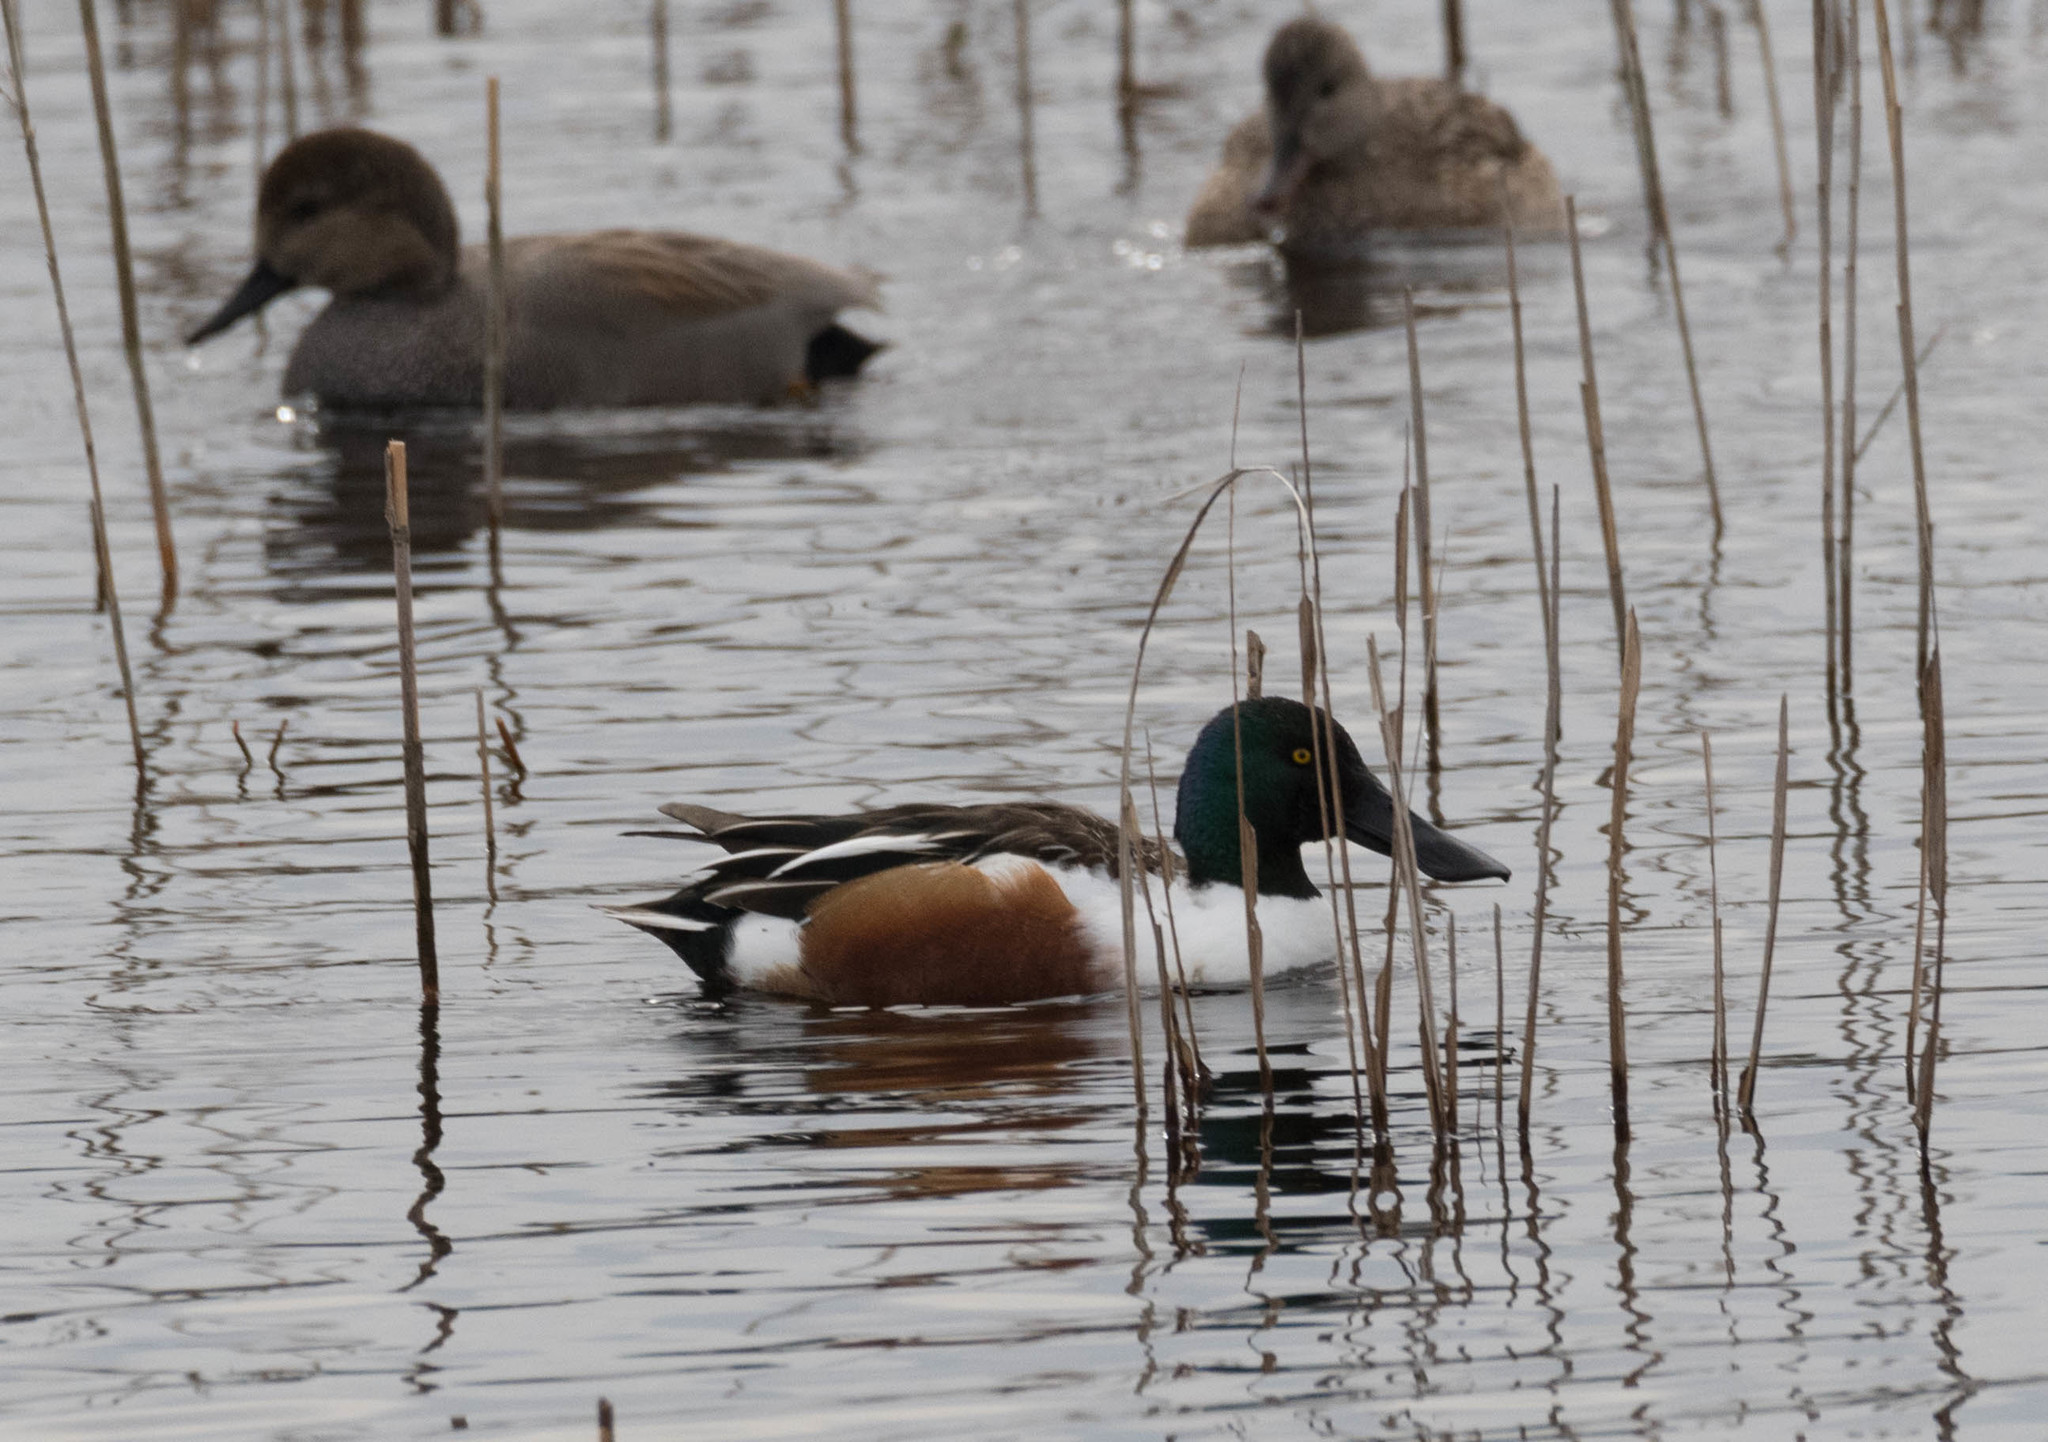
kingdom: Animalia
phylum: Chordata
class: Aves
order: Anseriformes
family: Anatidae
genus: Spatula
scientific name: Spatula clypeata
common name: Northern shoveler
